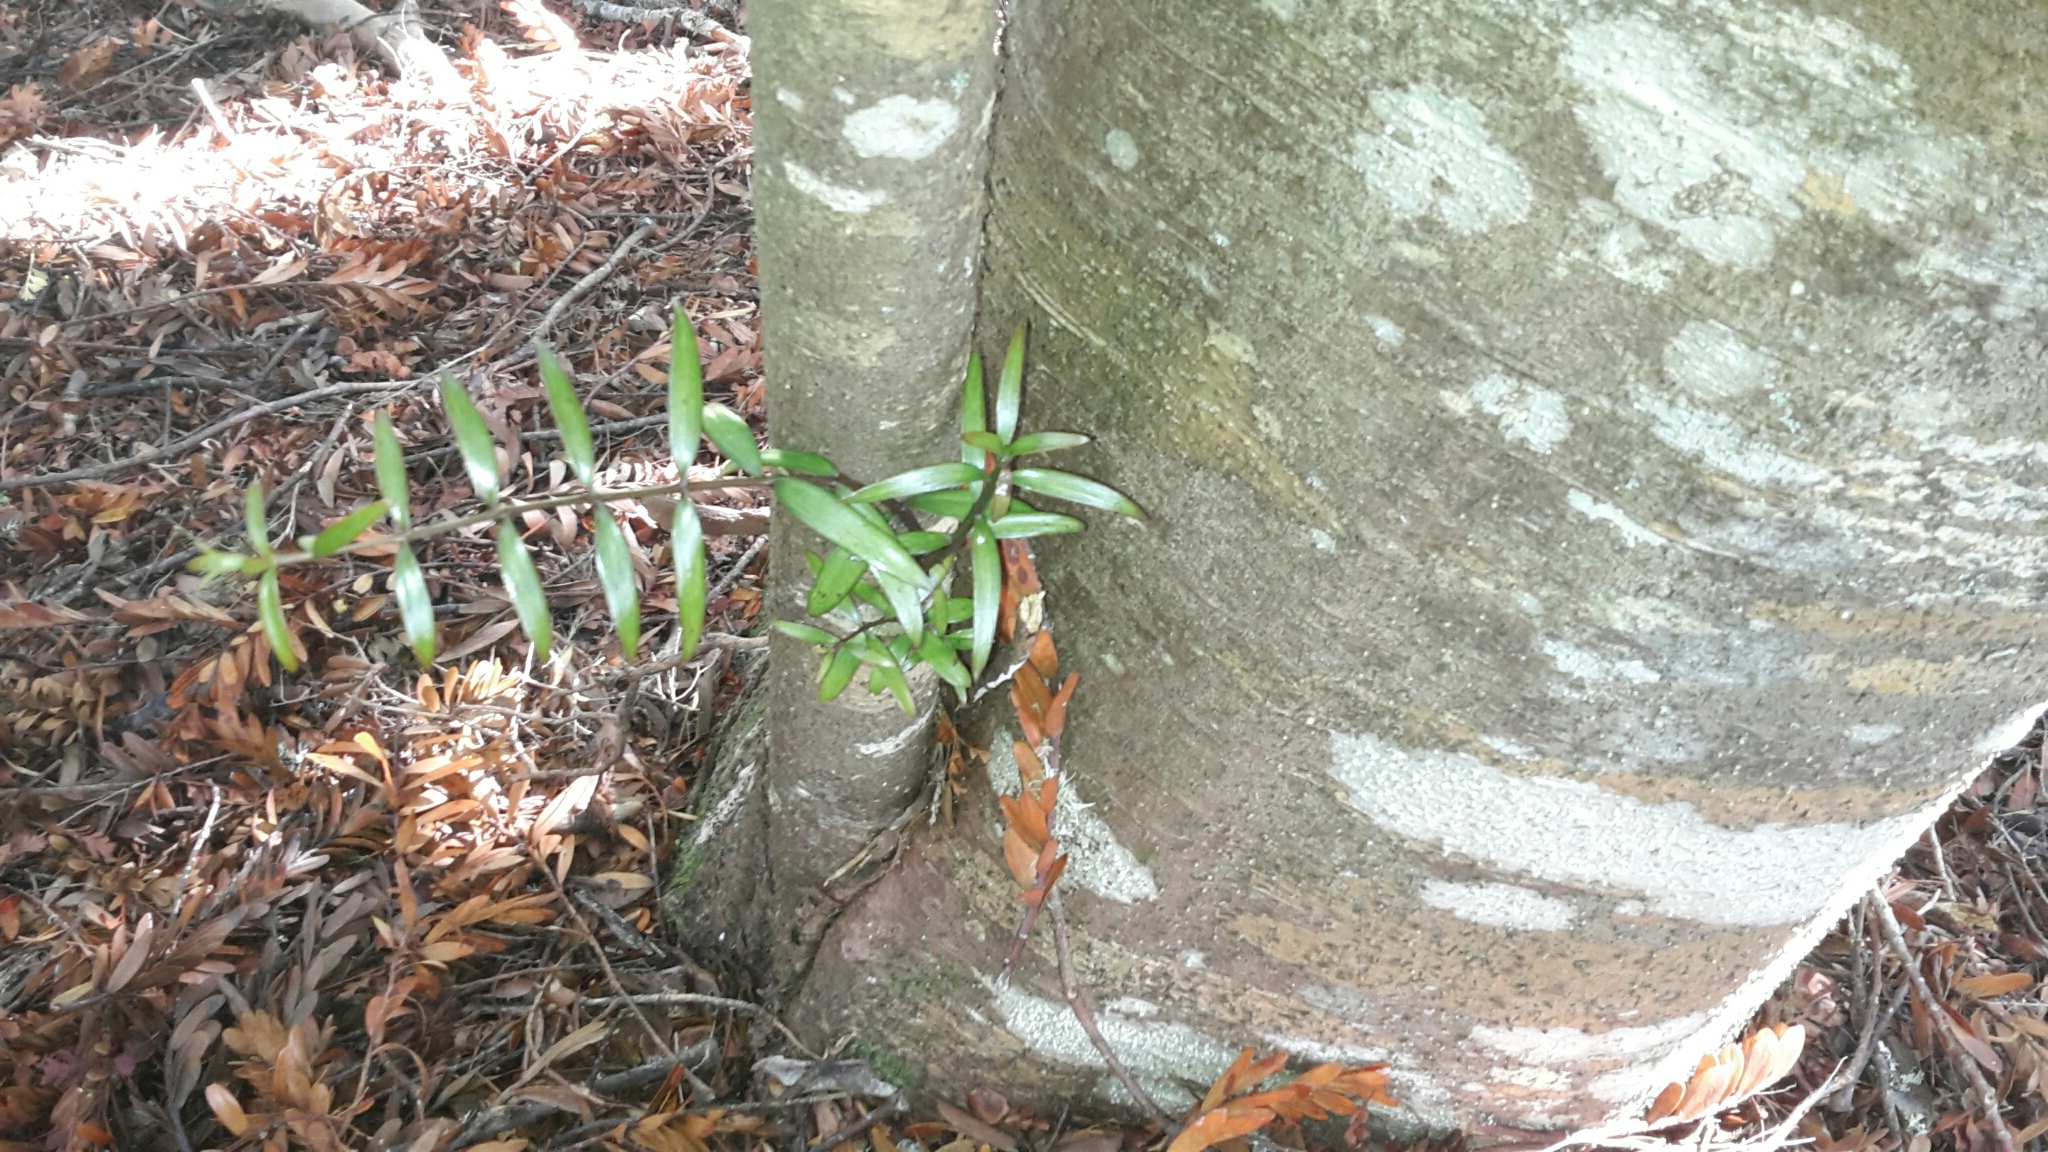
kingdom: Plantae
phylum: Tracheophyta
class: Pinopsida
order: Pinales
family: Araucariaceae
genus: Agathis
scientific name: Agathis australis
